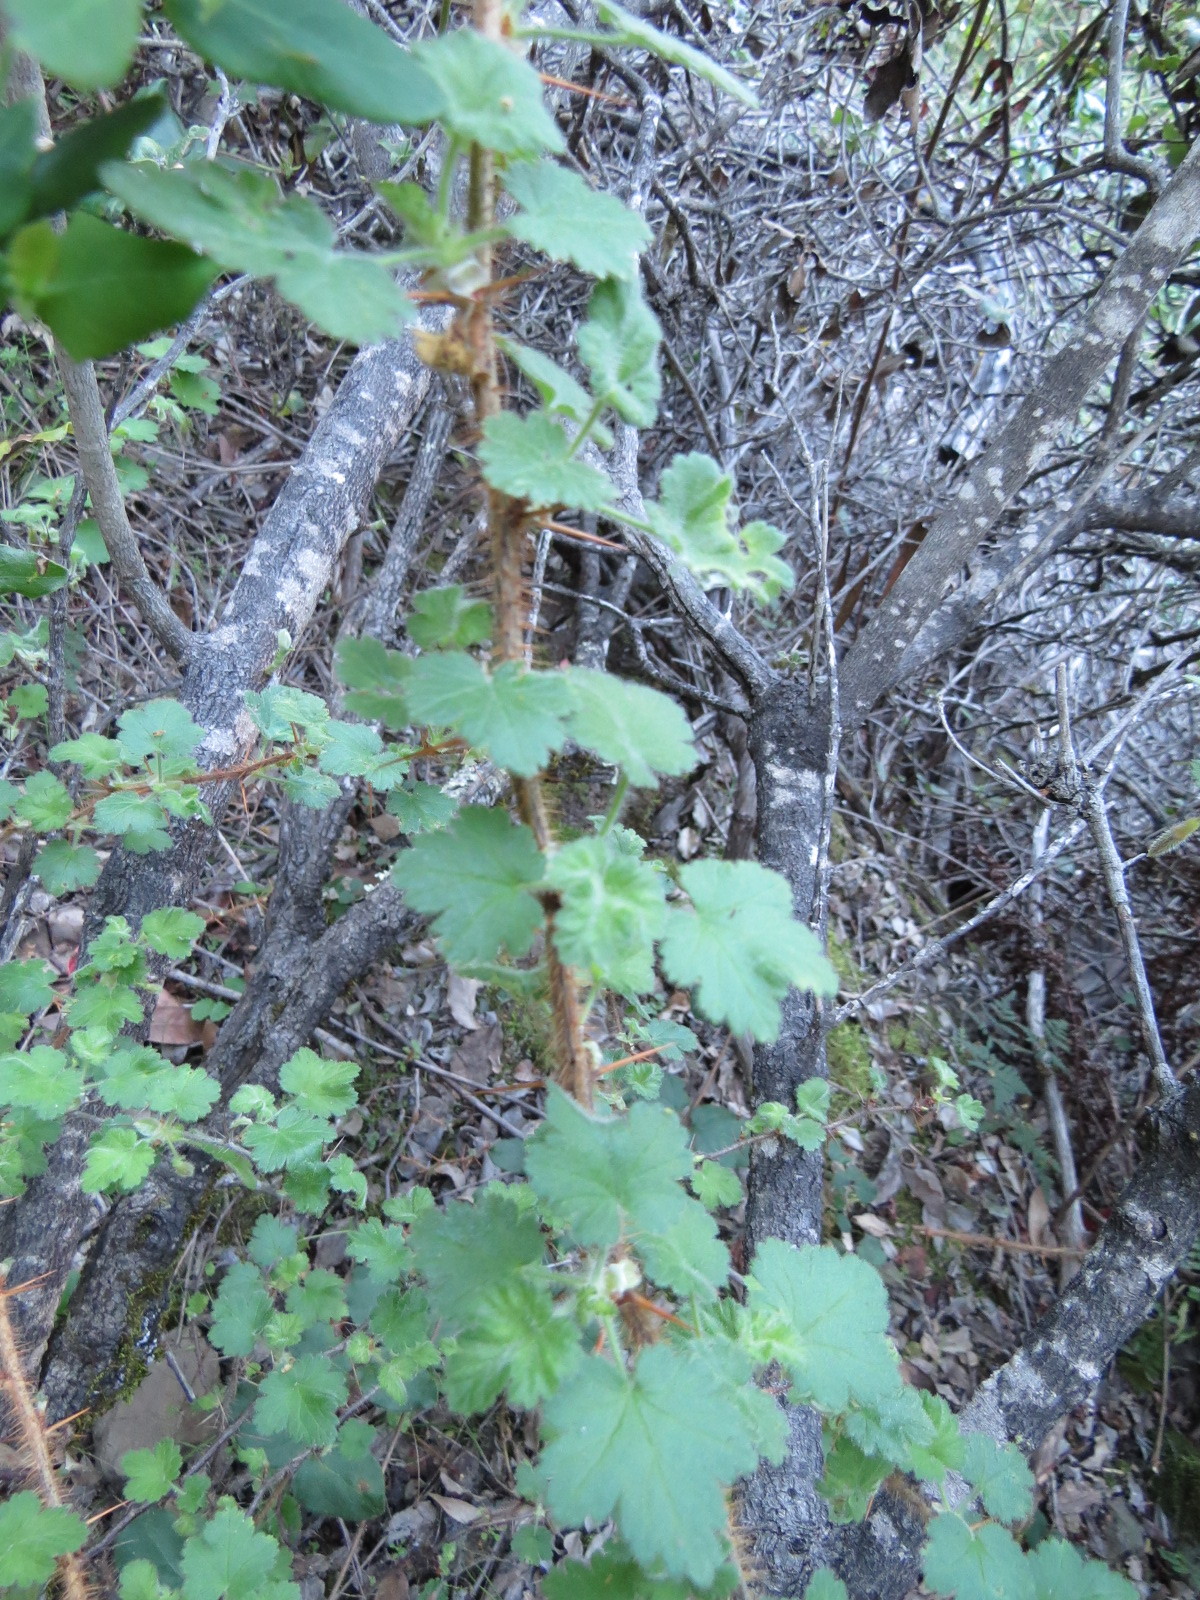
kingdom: Plantae
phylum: Tracheophyta
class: Magnoliopsida
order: Saxifragales
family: Grossulariaceae
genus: Ribes
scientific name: Ribes menziesii
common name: Canyon gooseberry
